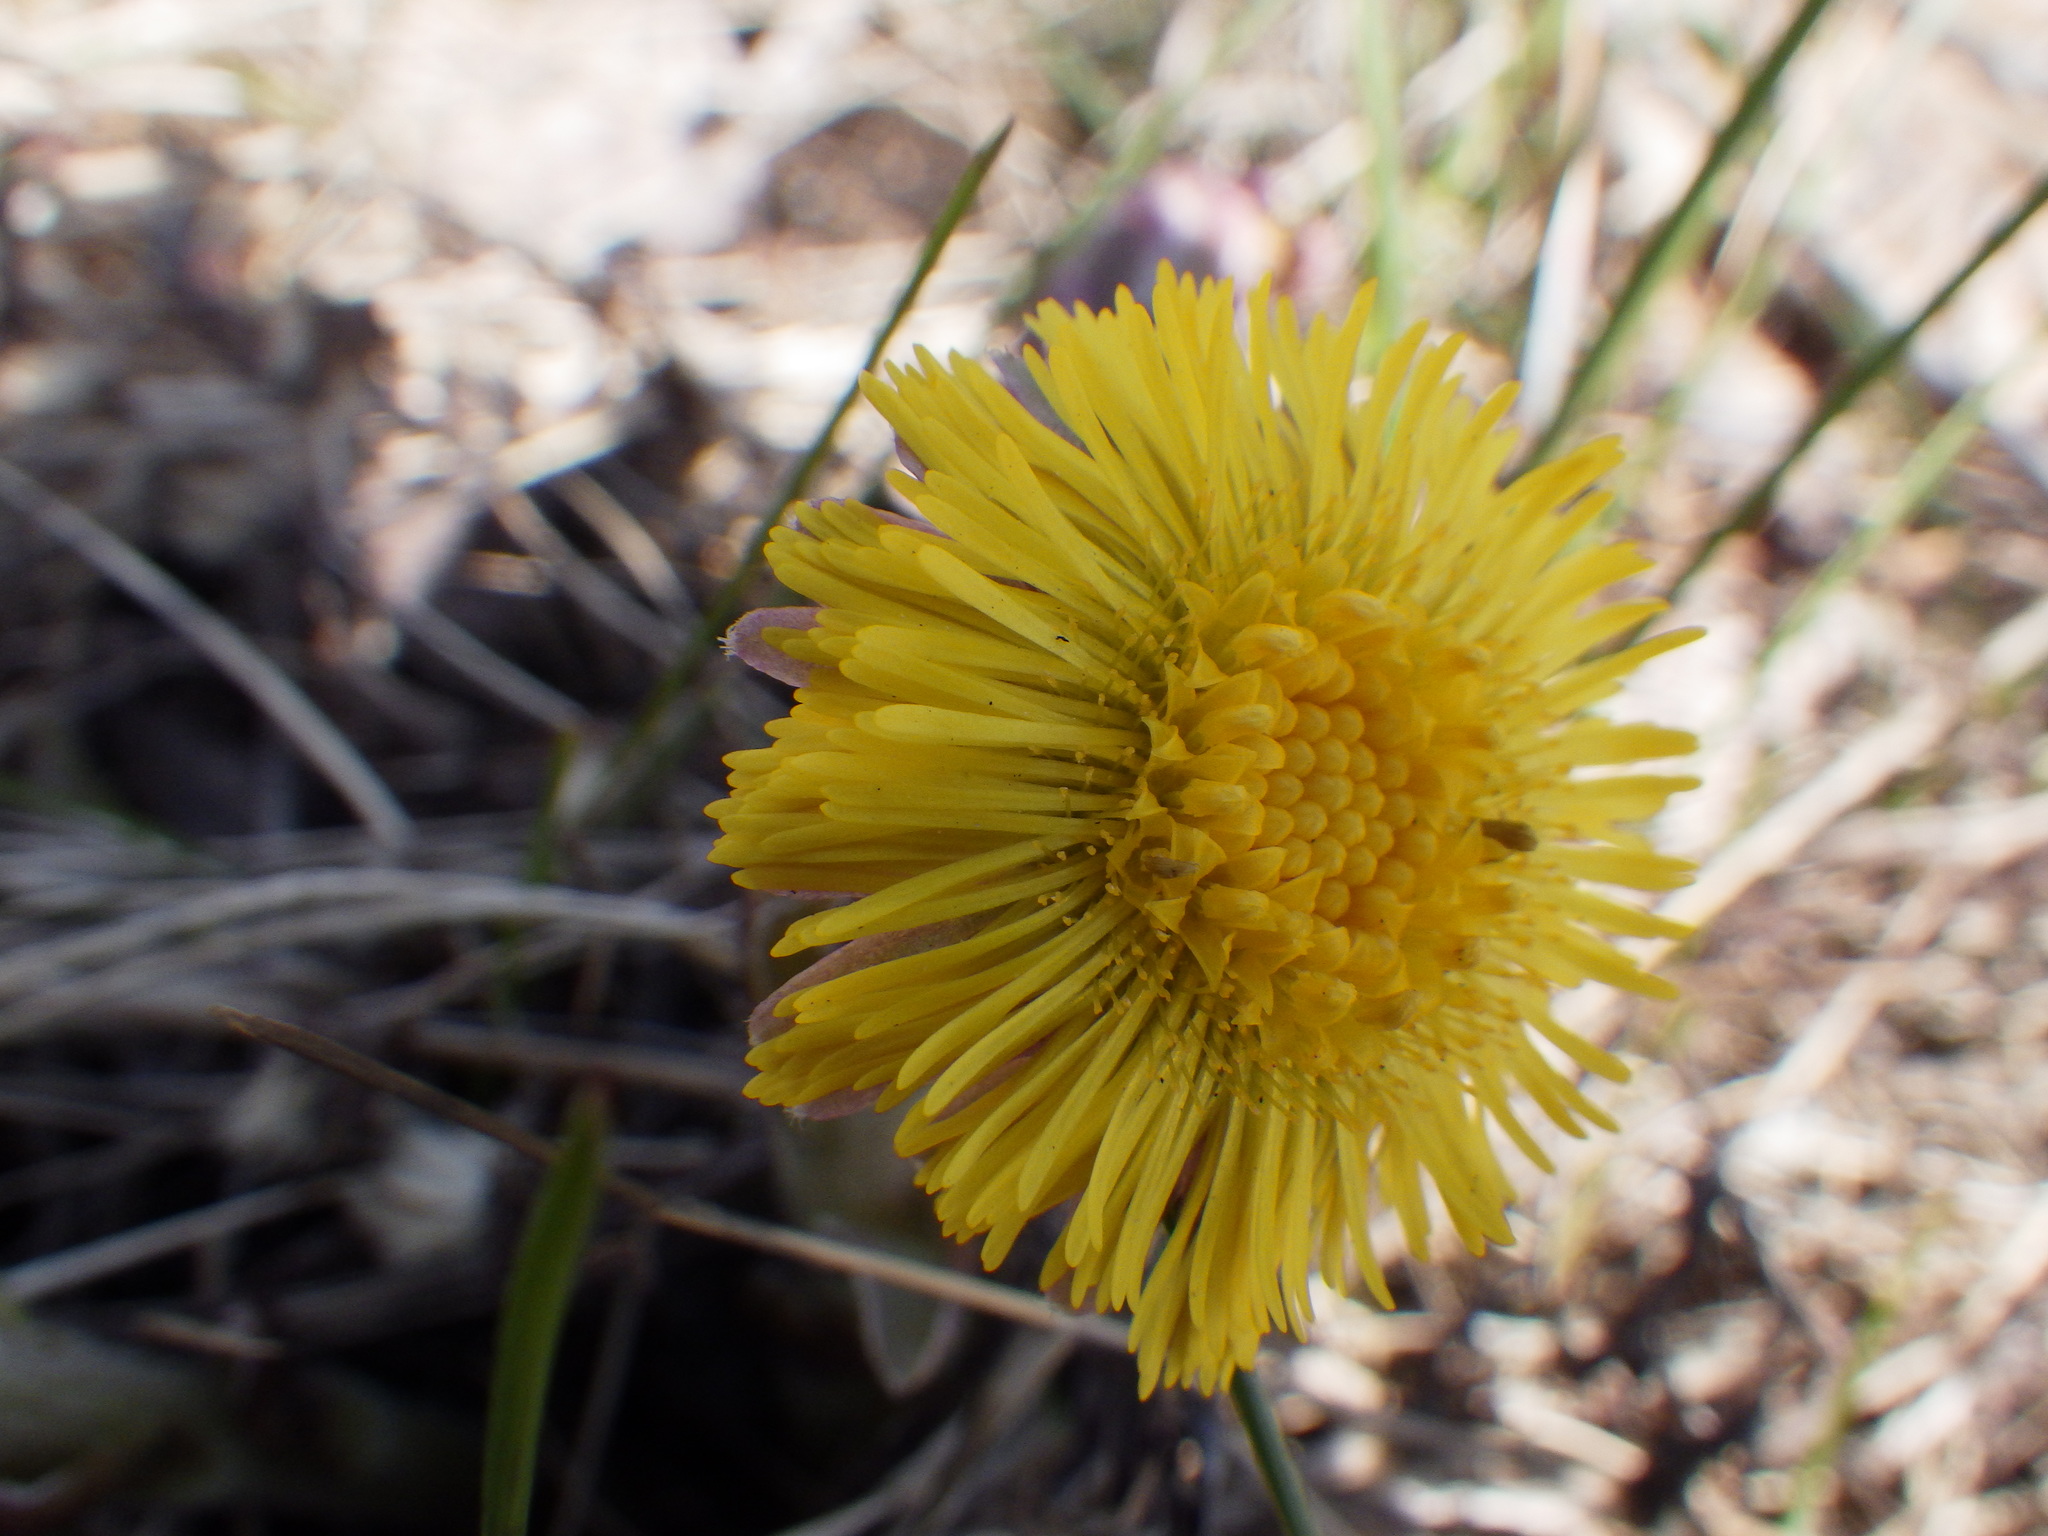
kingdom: Plantae
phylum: Tracheophyta
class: Magnoliopsida
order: Asterales
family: Asteraceae
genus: Tussilago
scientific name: Tussilago farfara
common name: Coltsfoot
